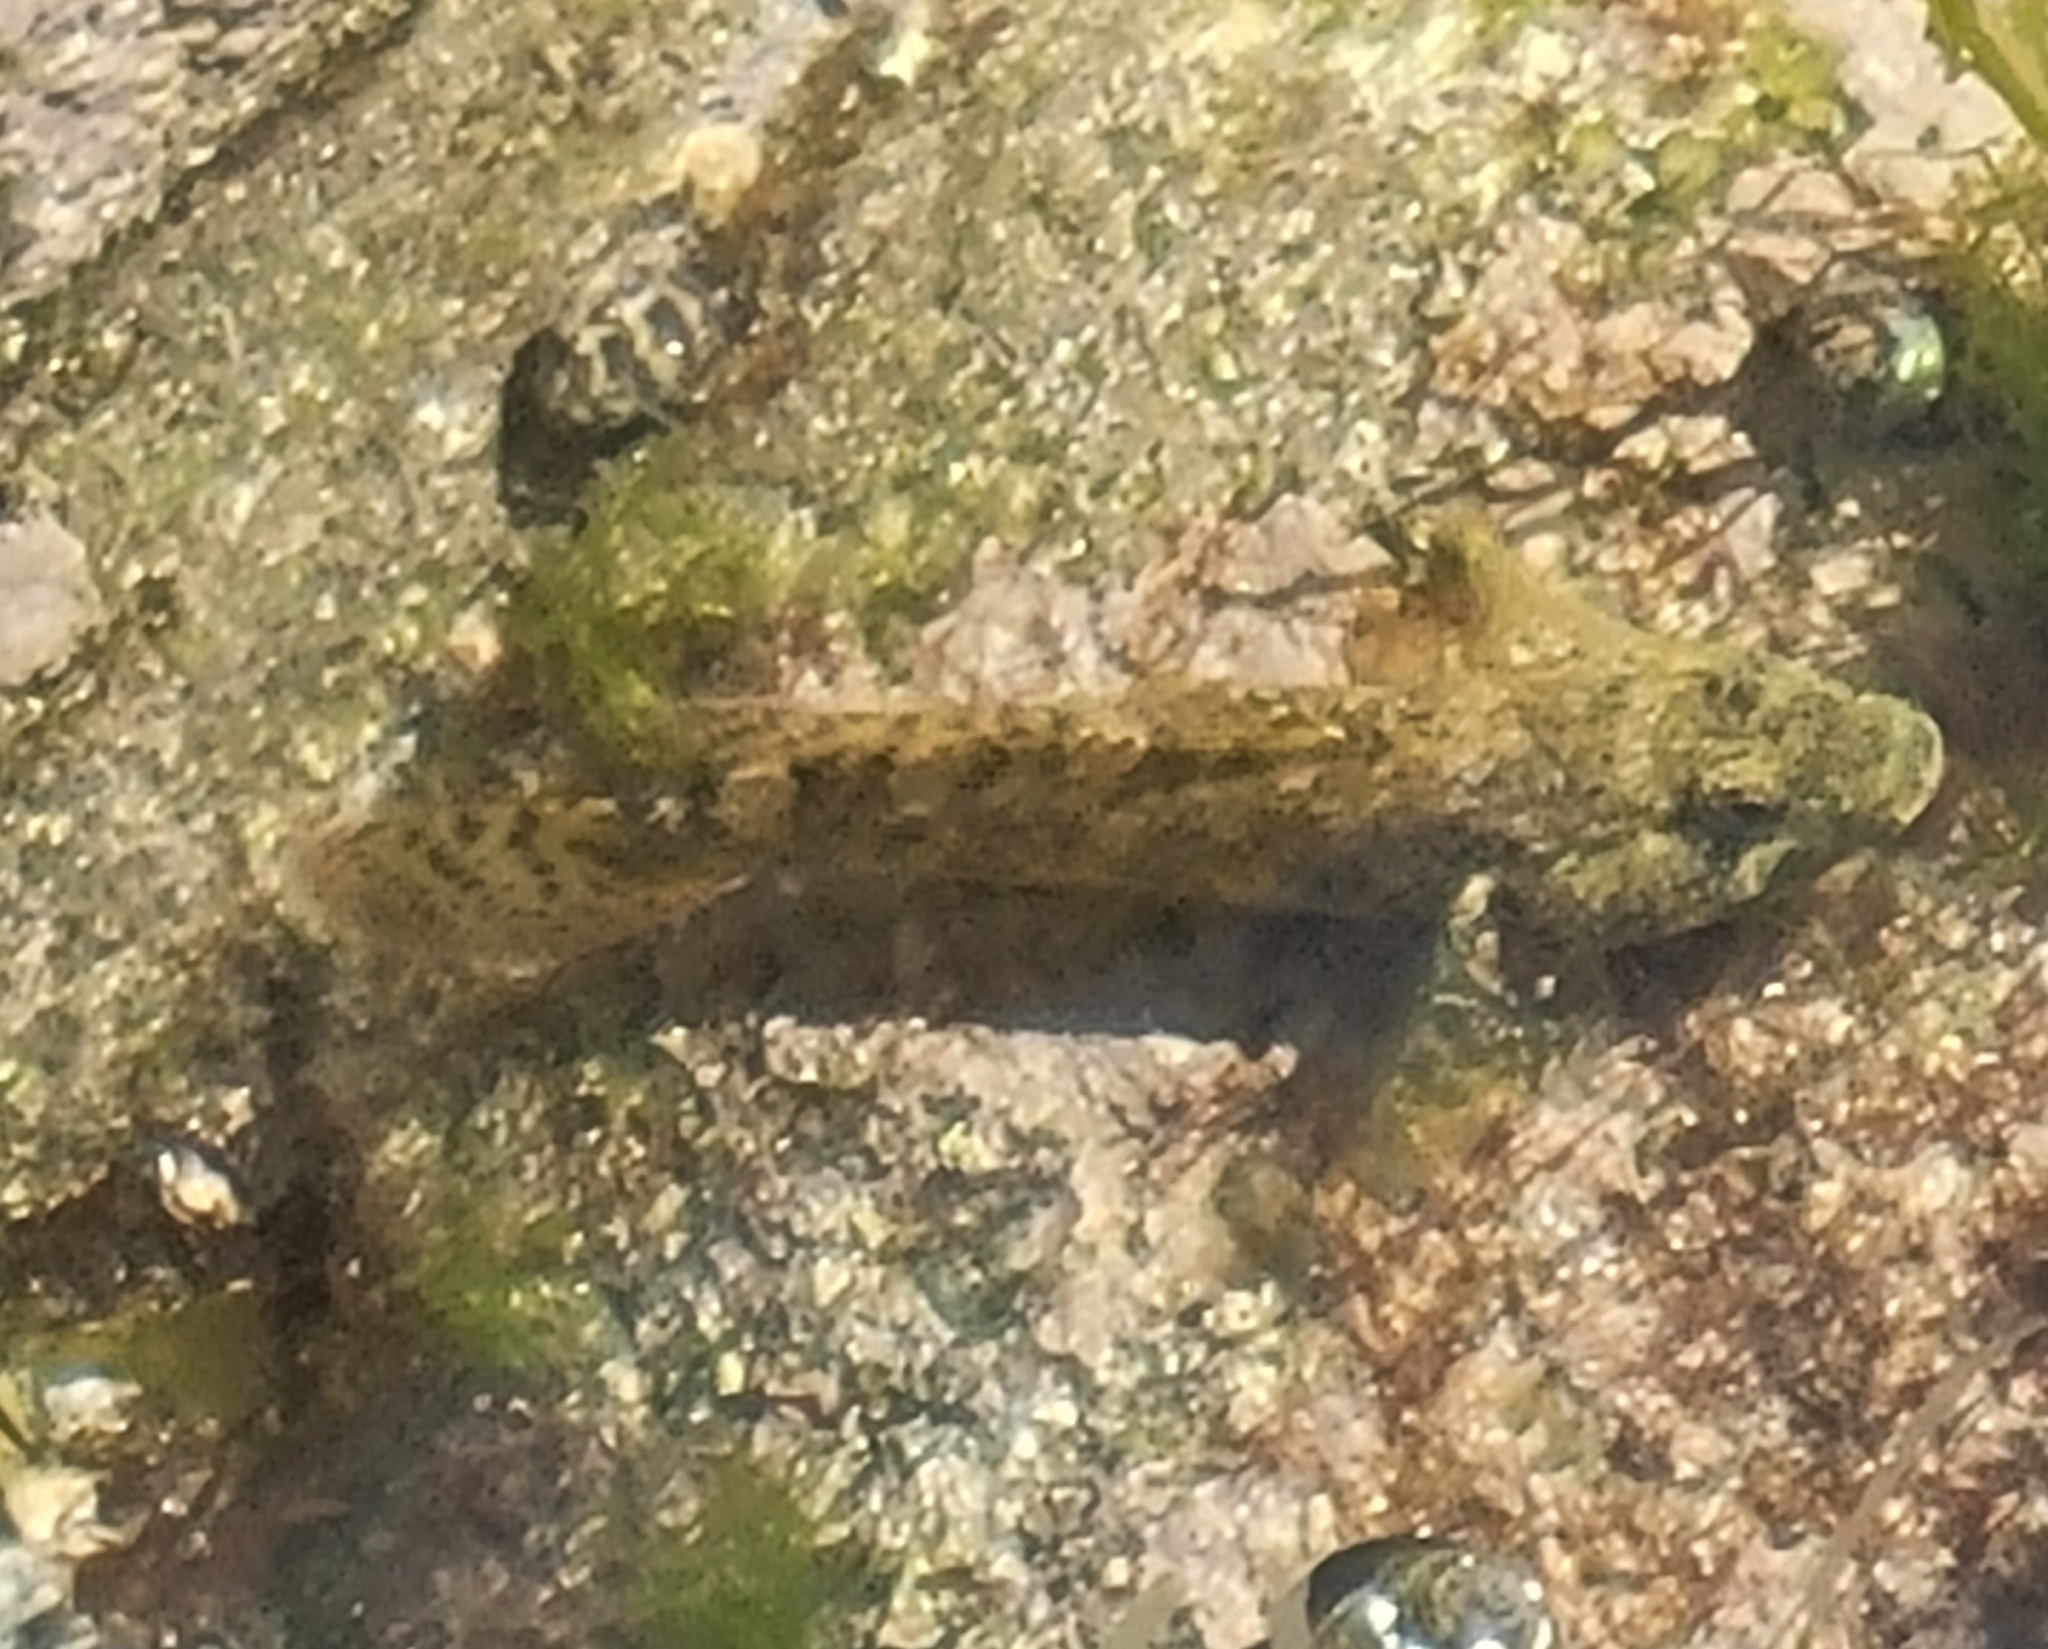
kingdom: Animalia
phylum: Chordata
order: Perciformes
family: Gobiidae
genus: Gobius
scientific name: Gobius cobitis
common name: Giant goby
